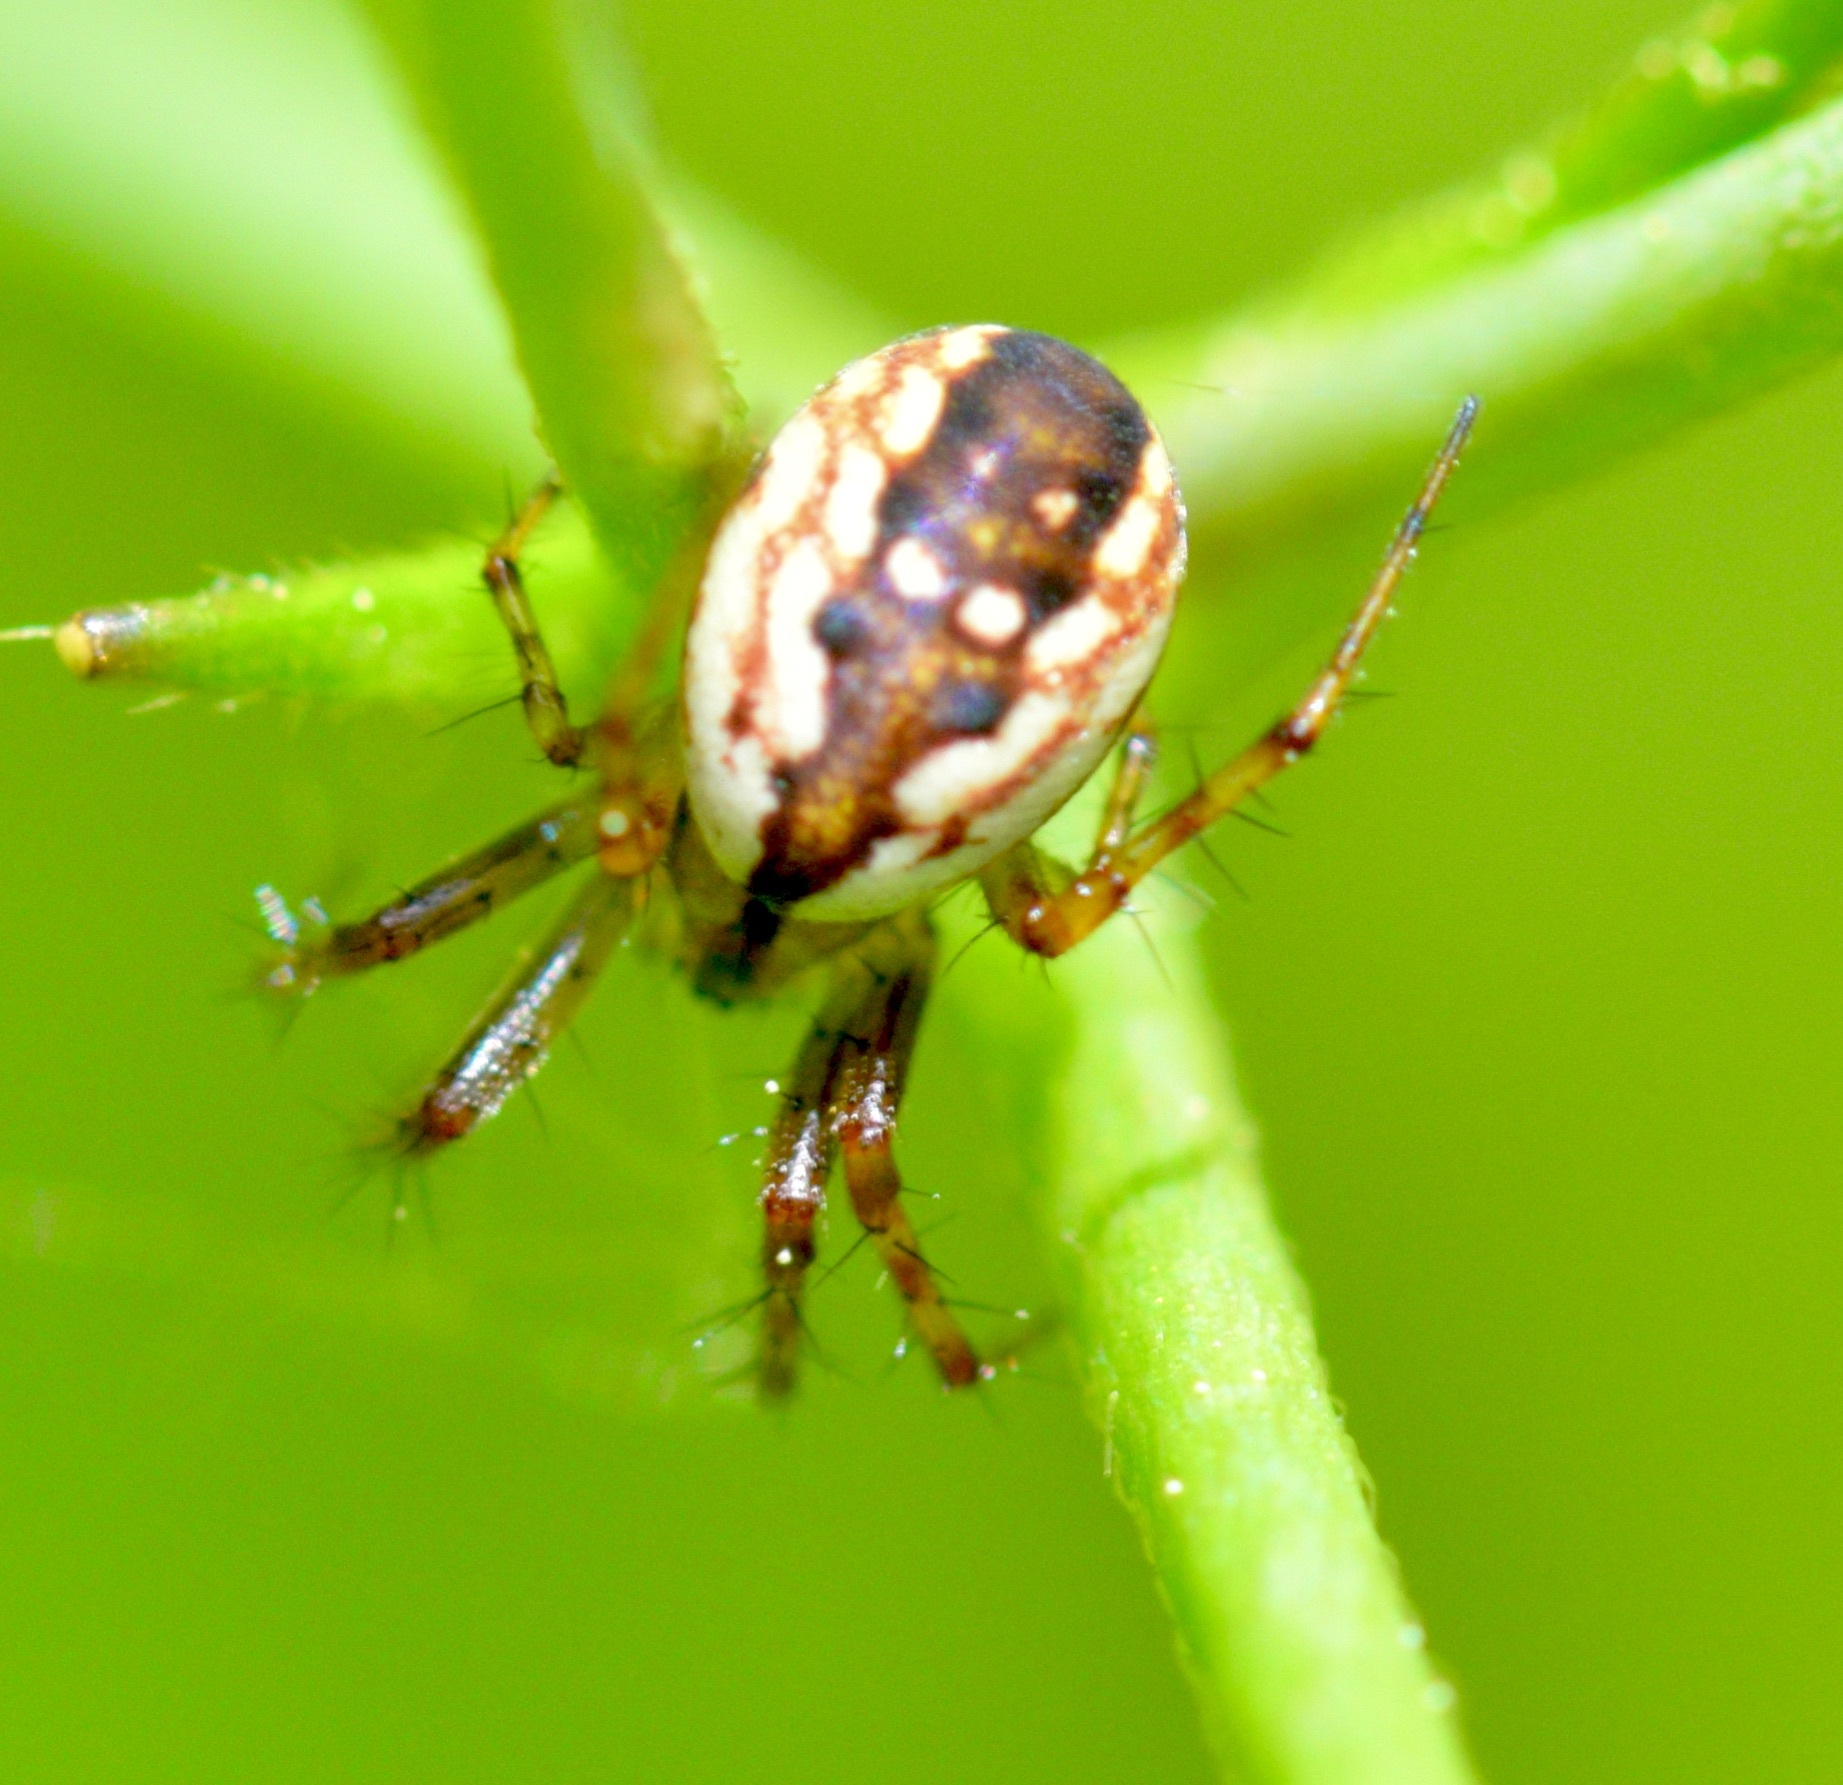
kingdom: Animalia
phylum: Arthropoda
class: Arachnida
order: Araneae
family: Araneidae
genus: Mangora
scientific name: Mangora placida
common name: Tuft-legged orbweaver
